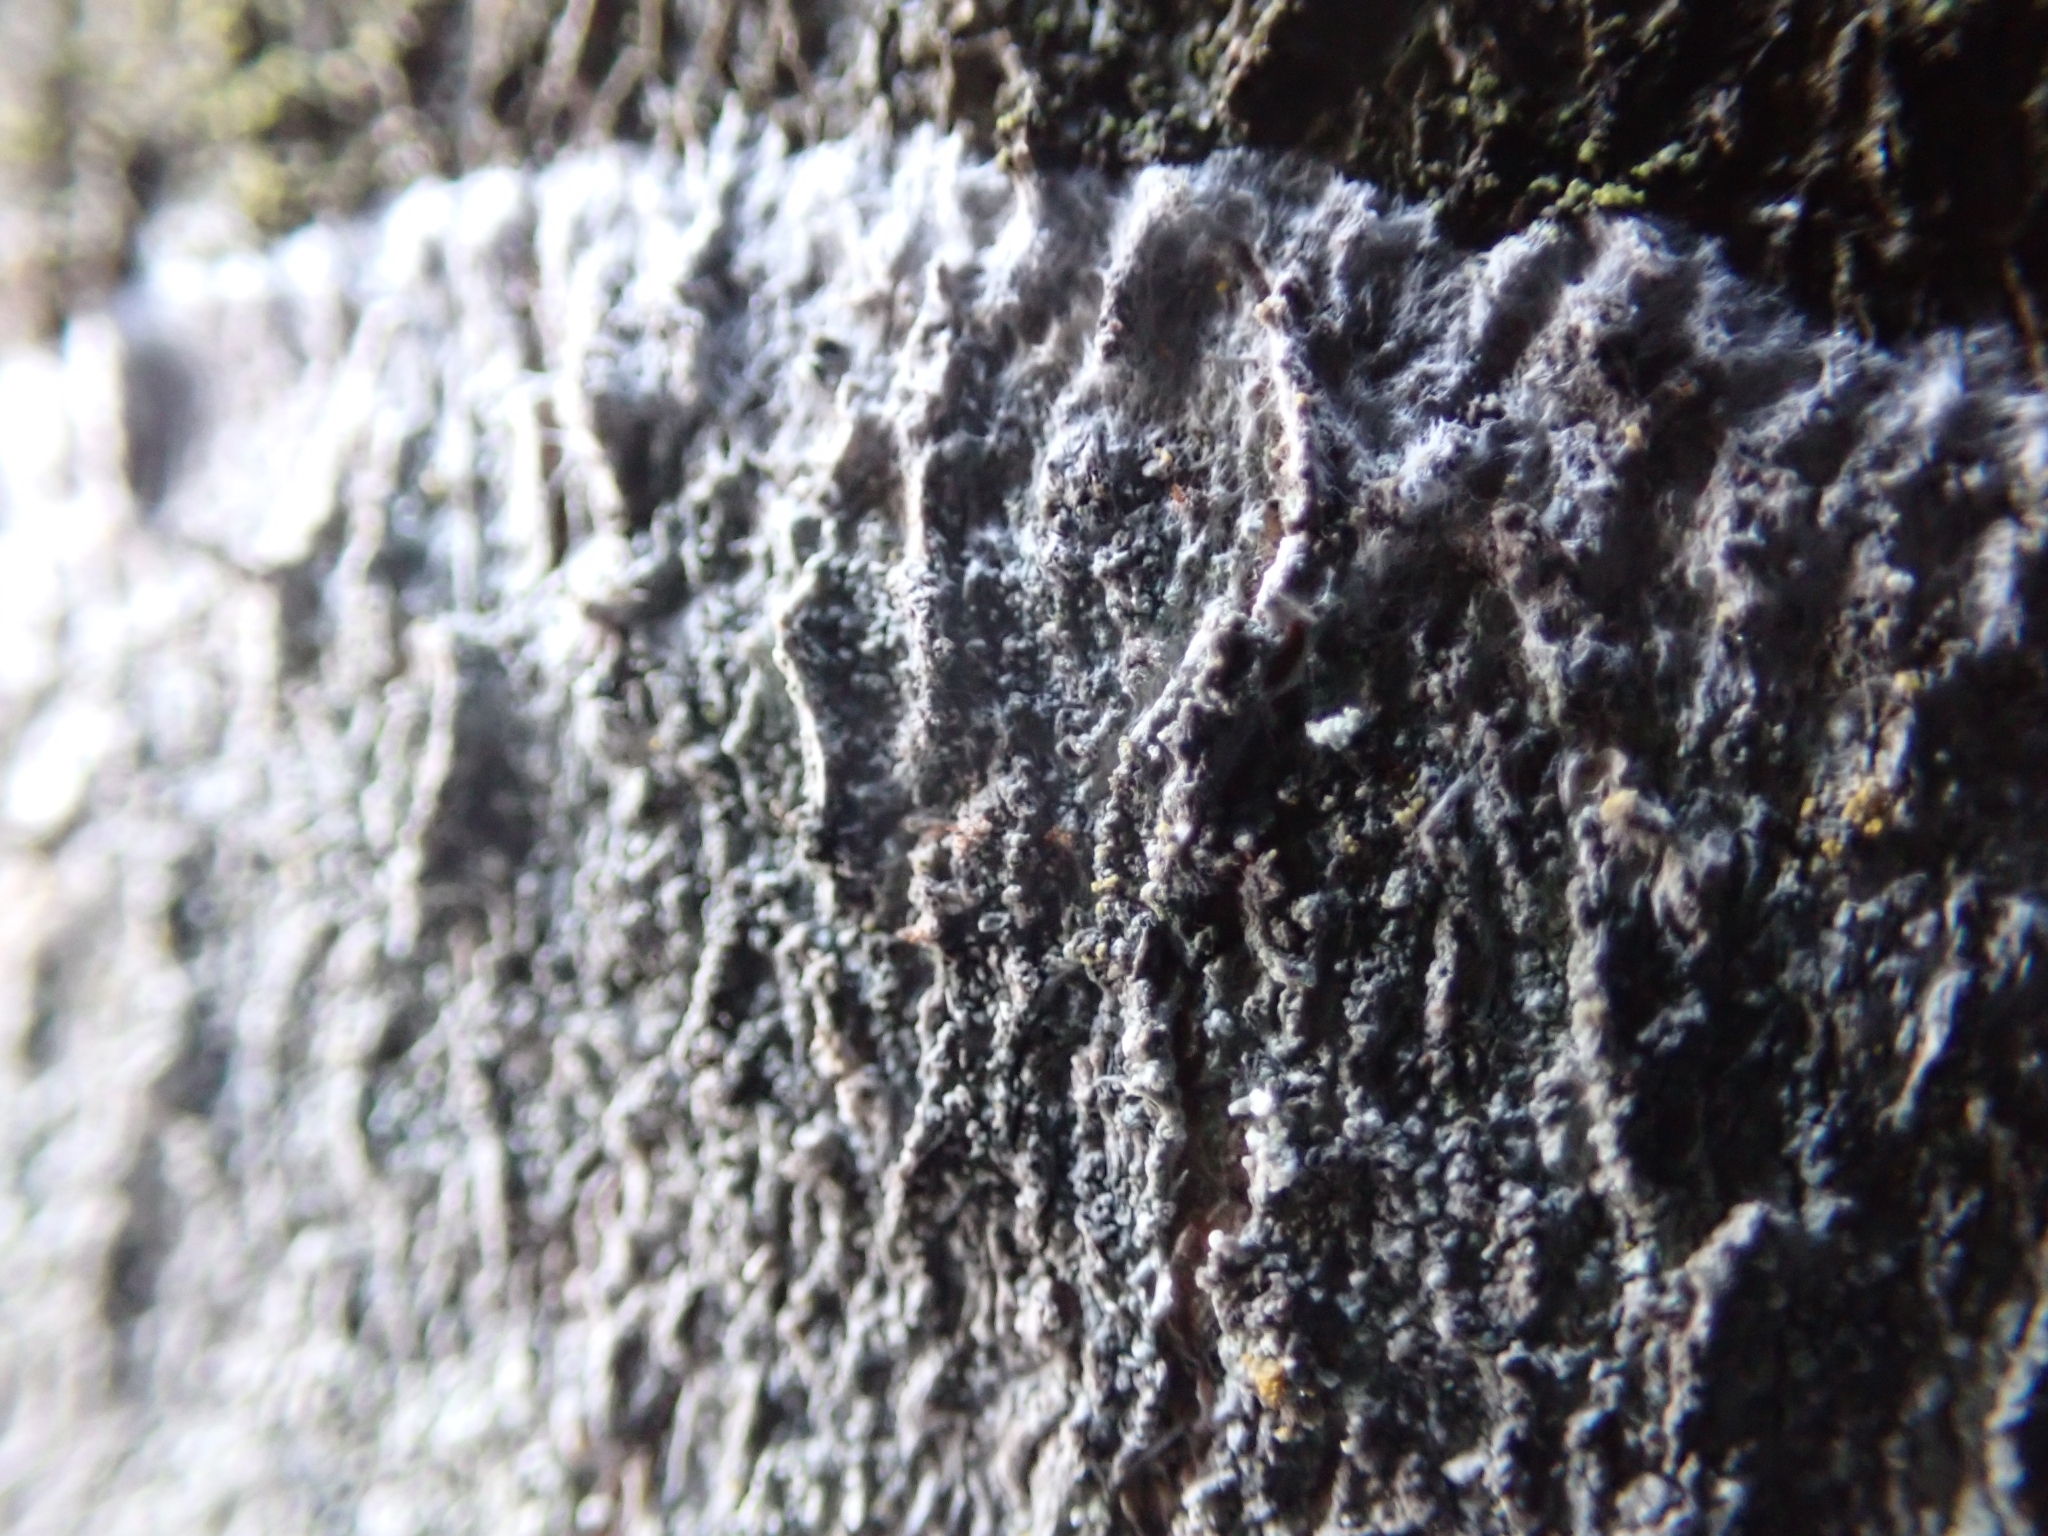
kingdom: Fungi
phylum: Ascomycota
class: Lecanoromycetes
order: Ostropales
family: Phlyctidaceae
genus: Phlyctis
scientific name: Phlyctis argena
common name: Whitewash lichen
